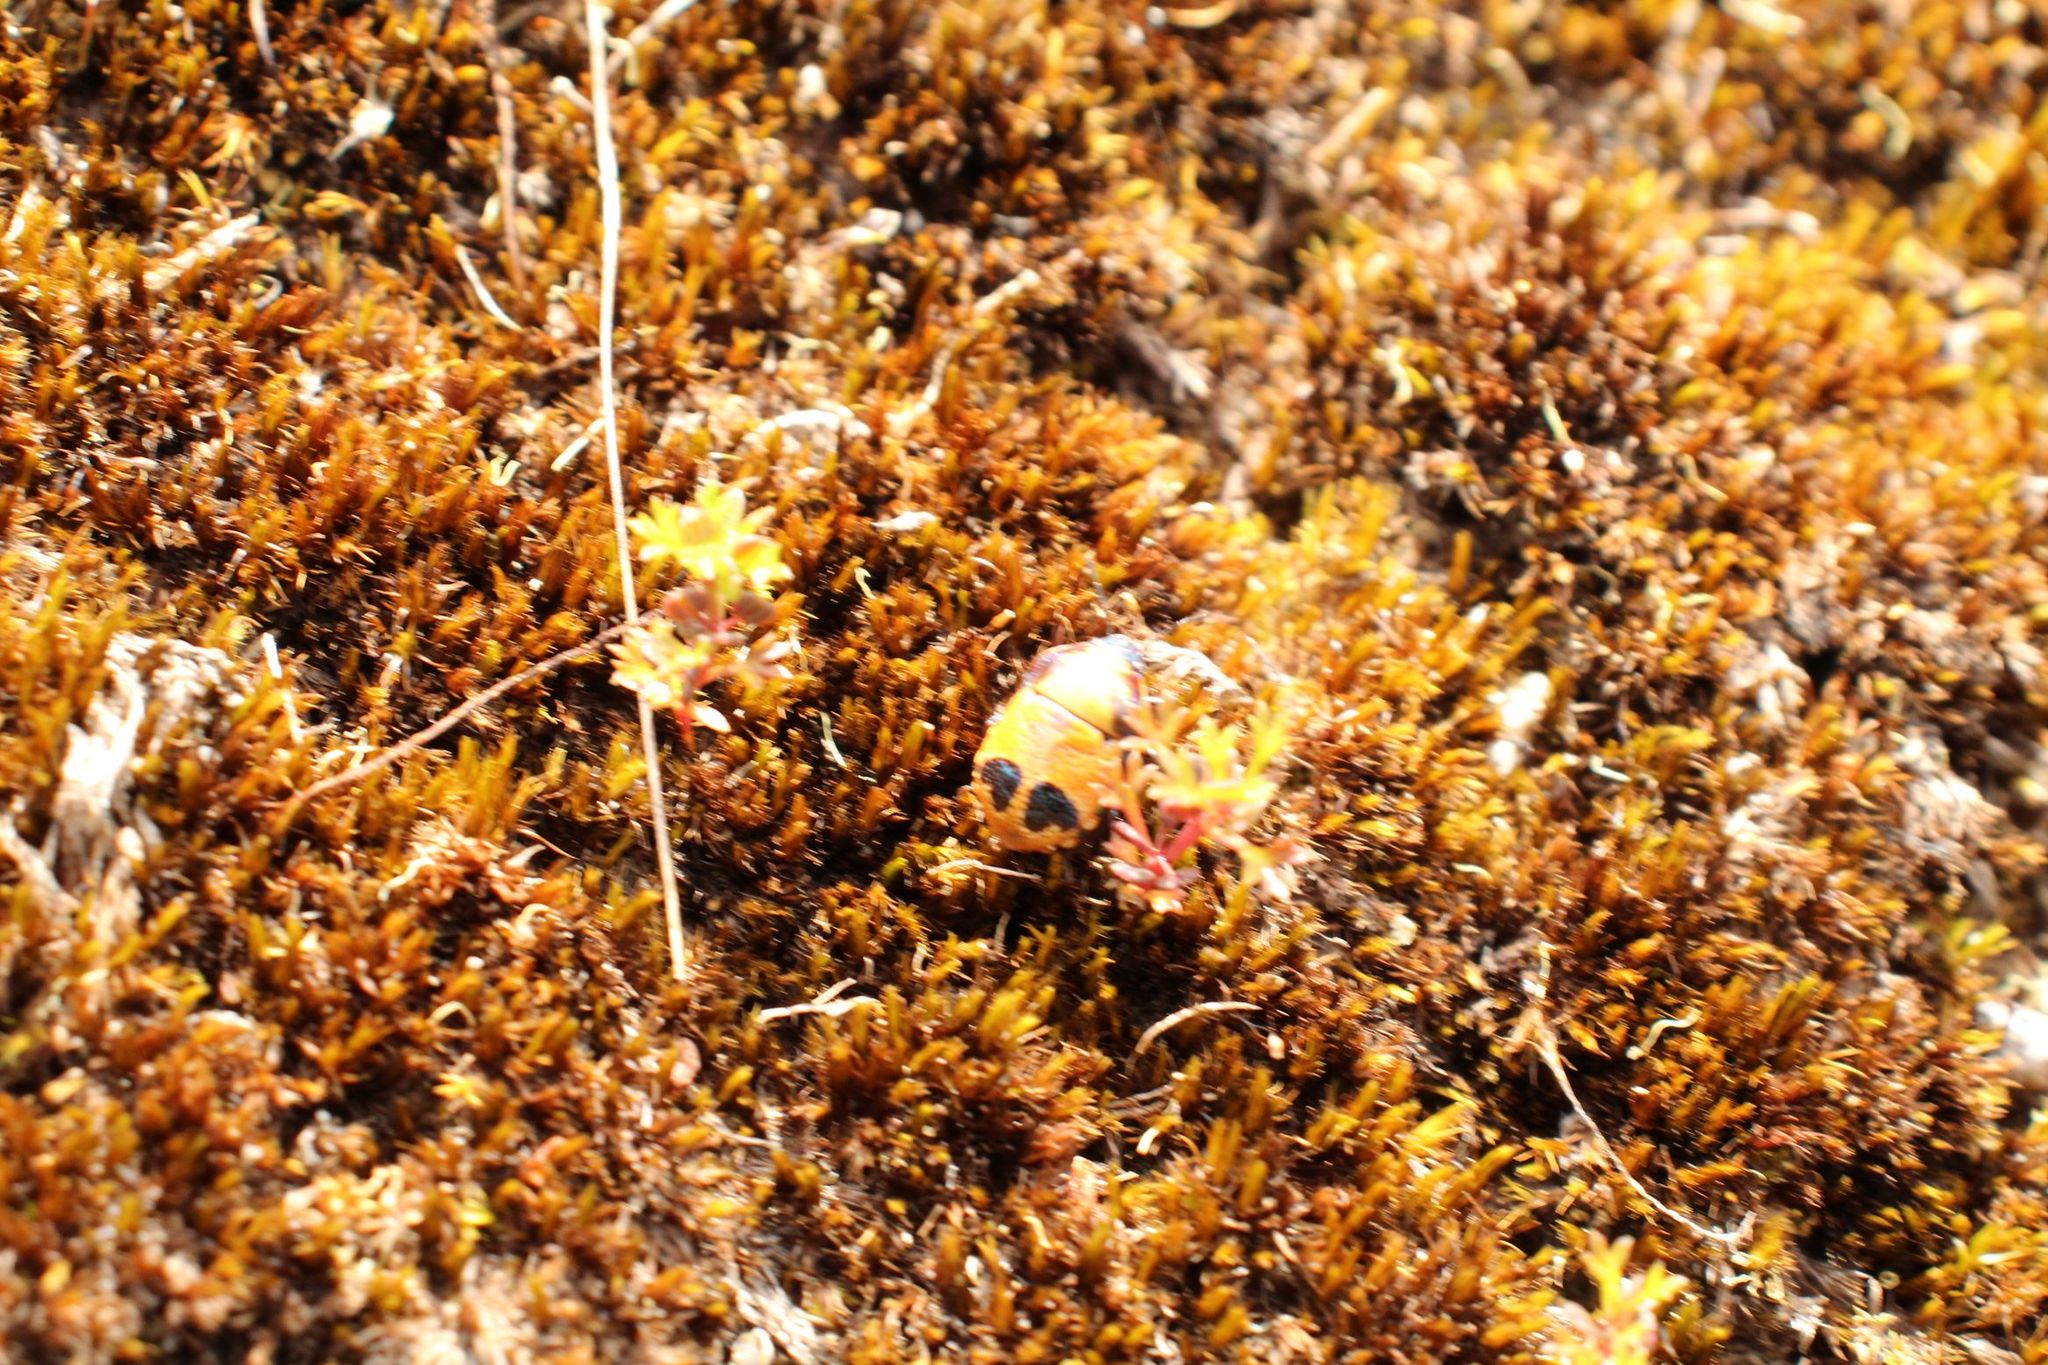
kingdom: Animalia
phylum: Arthropoda
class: Insecta
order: Hemiptera
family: Scutelleridae
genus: Choerocoris
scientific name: Choerocoris paganus
